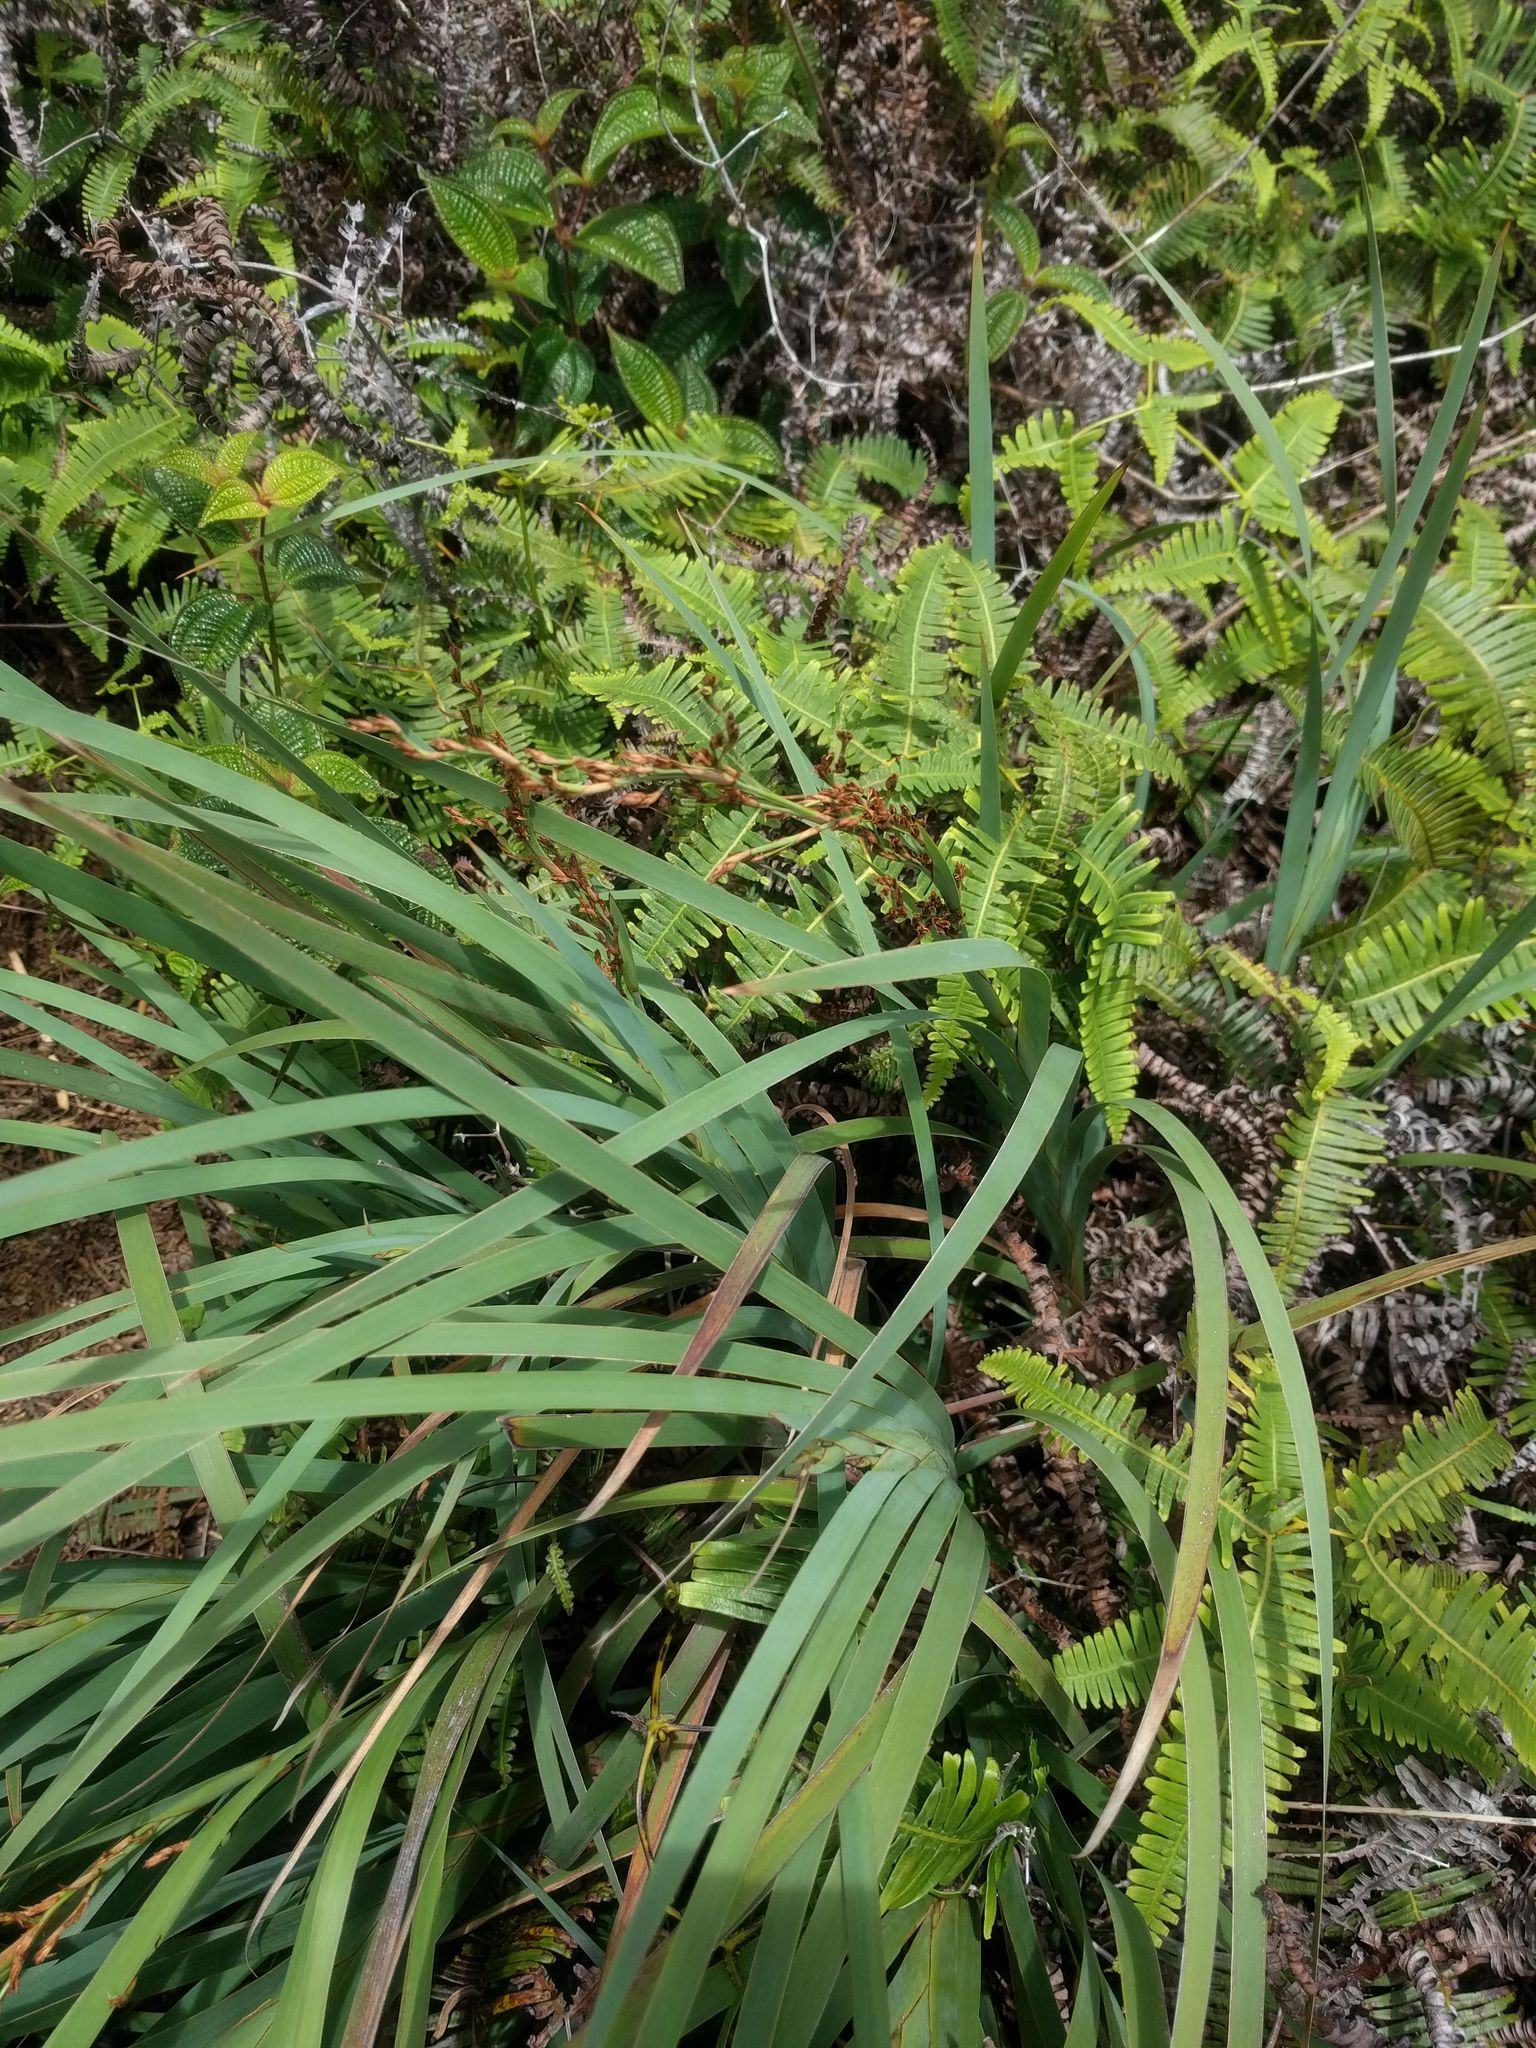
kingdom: Plantae
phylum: Tracheophyta
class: Liliopsida
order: Poales
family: Cyperaceae
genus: Machaerina
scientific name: Machaerina mariscoides
